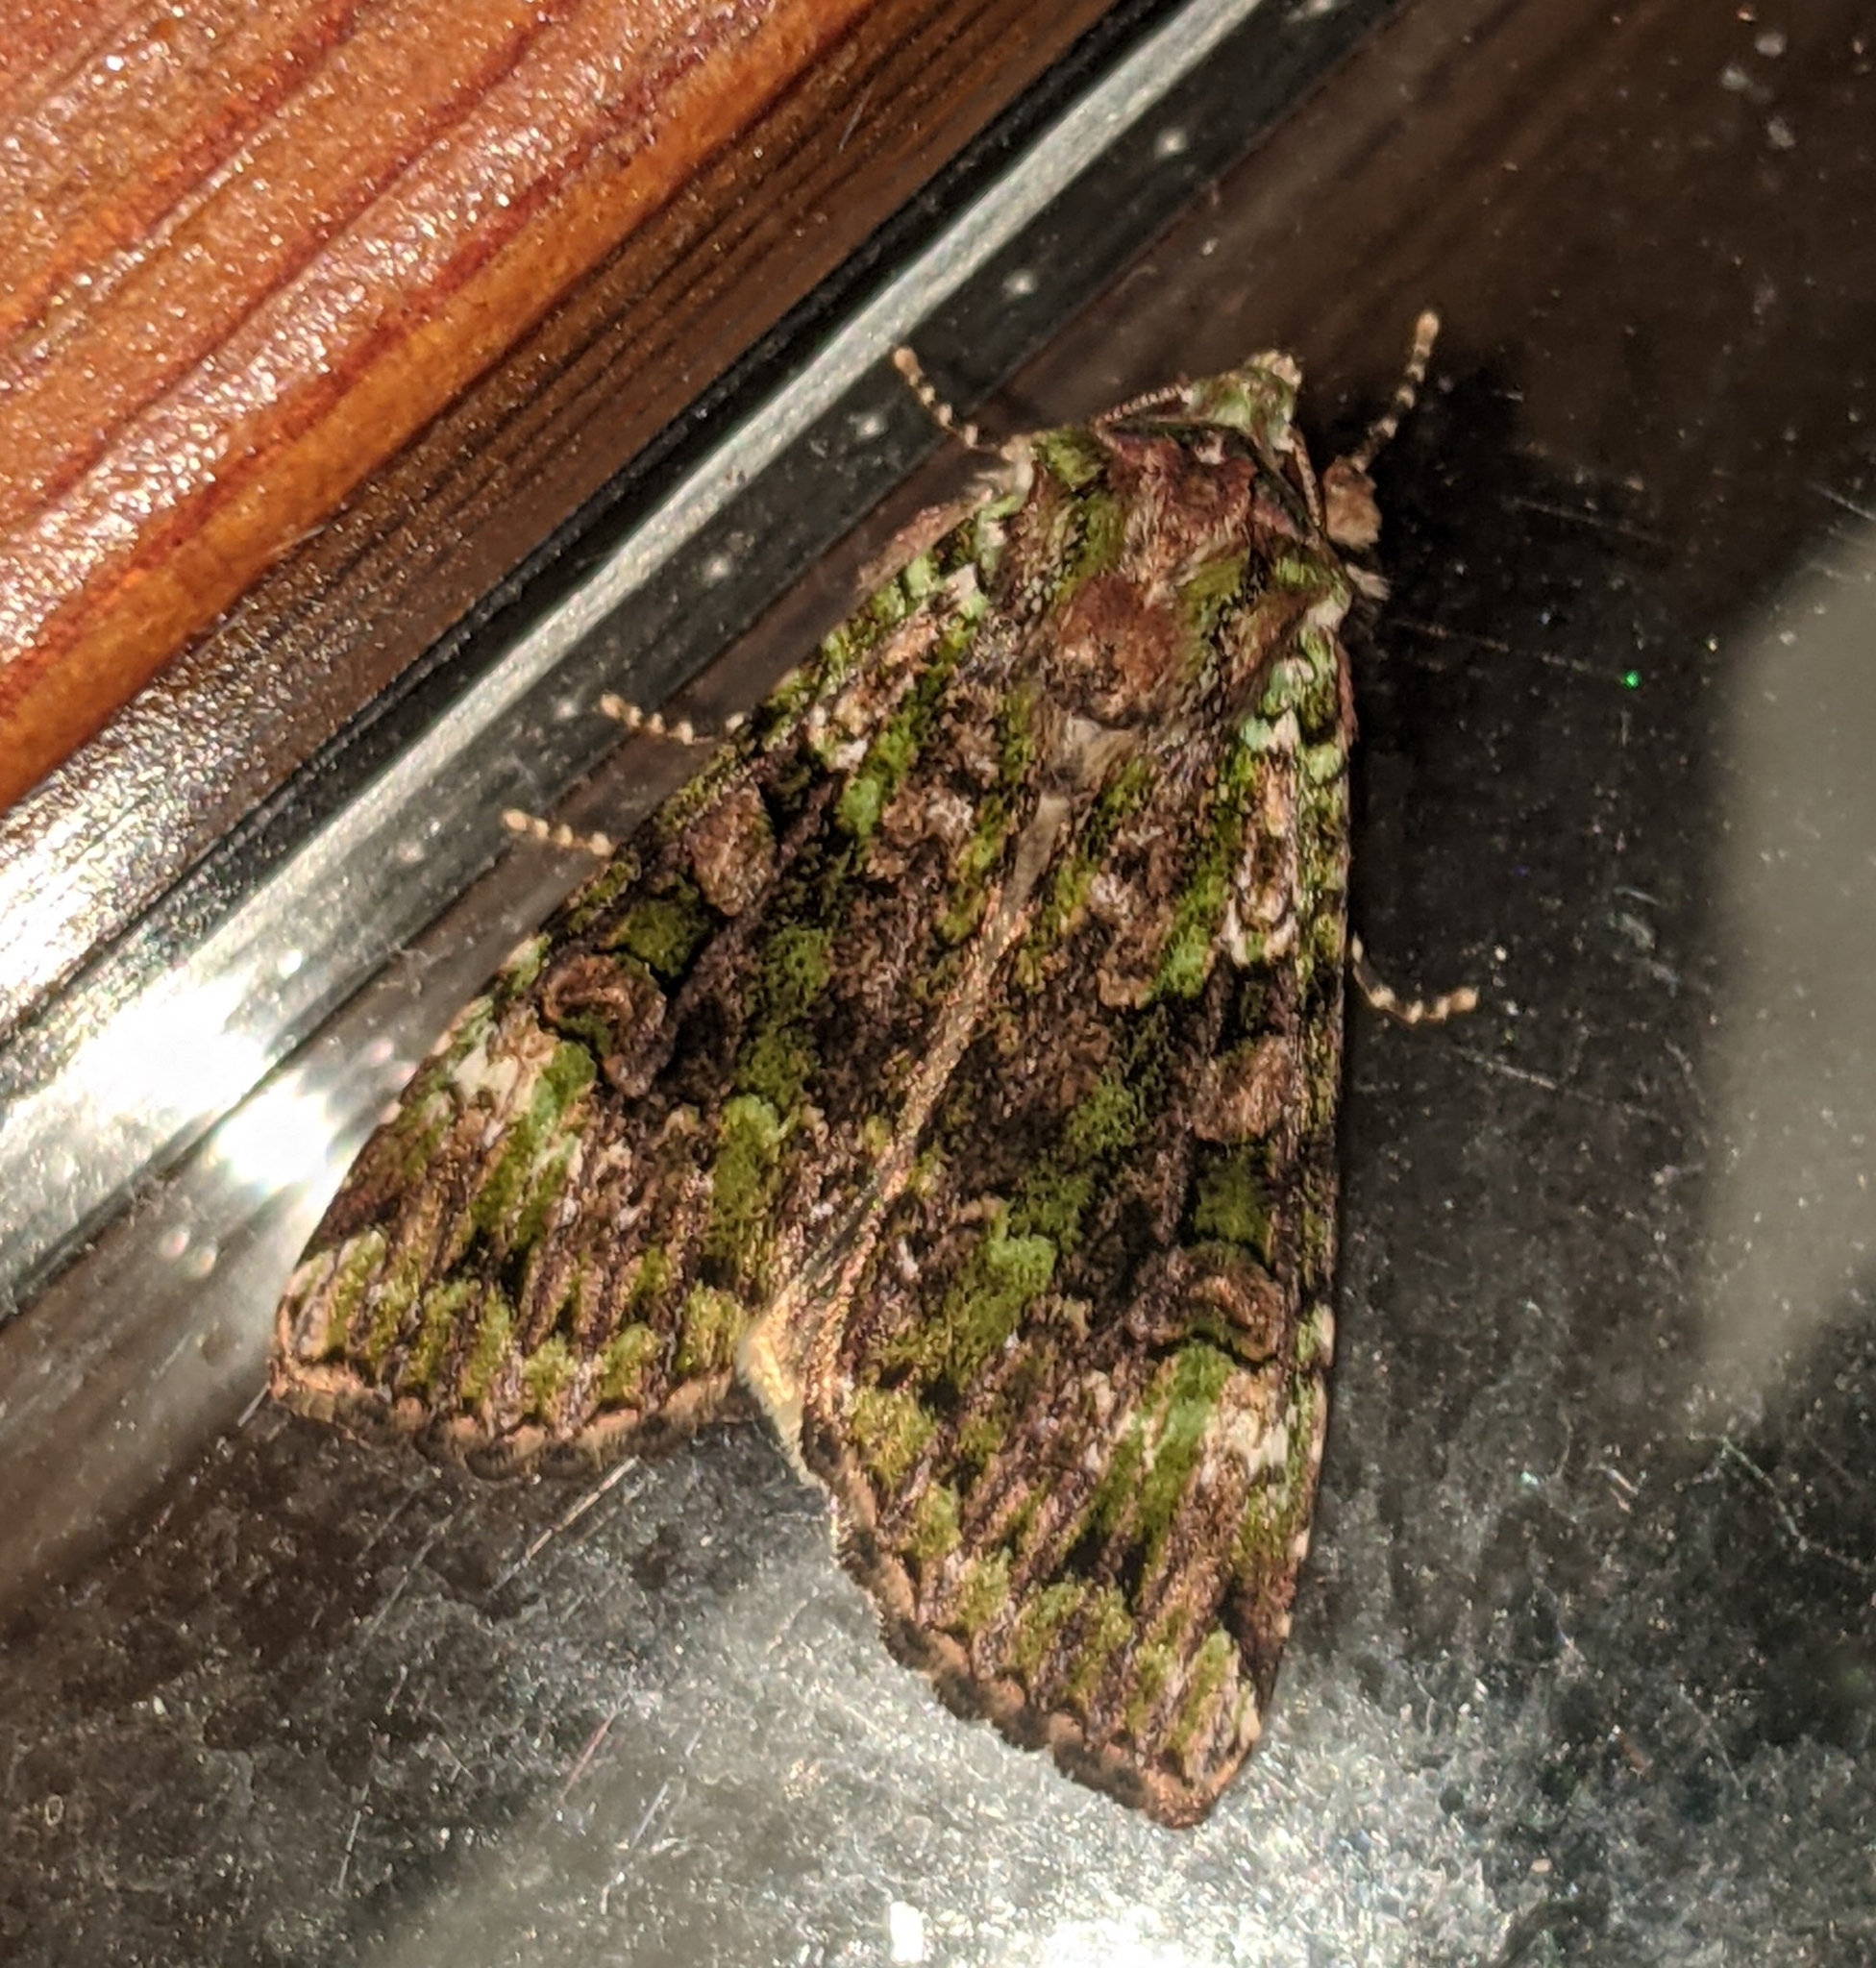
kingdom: Animalia
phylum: Arthropoda
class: Insecta
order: Lepidoptera
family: Noctuidae
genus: Anaplectoides
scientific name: Anaplectoides prasina
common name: Green arches
